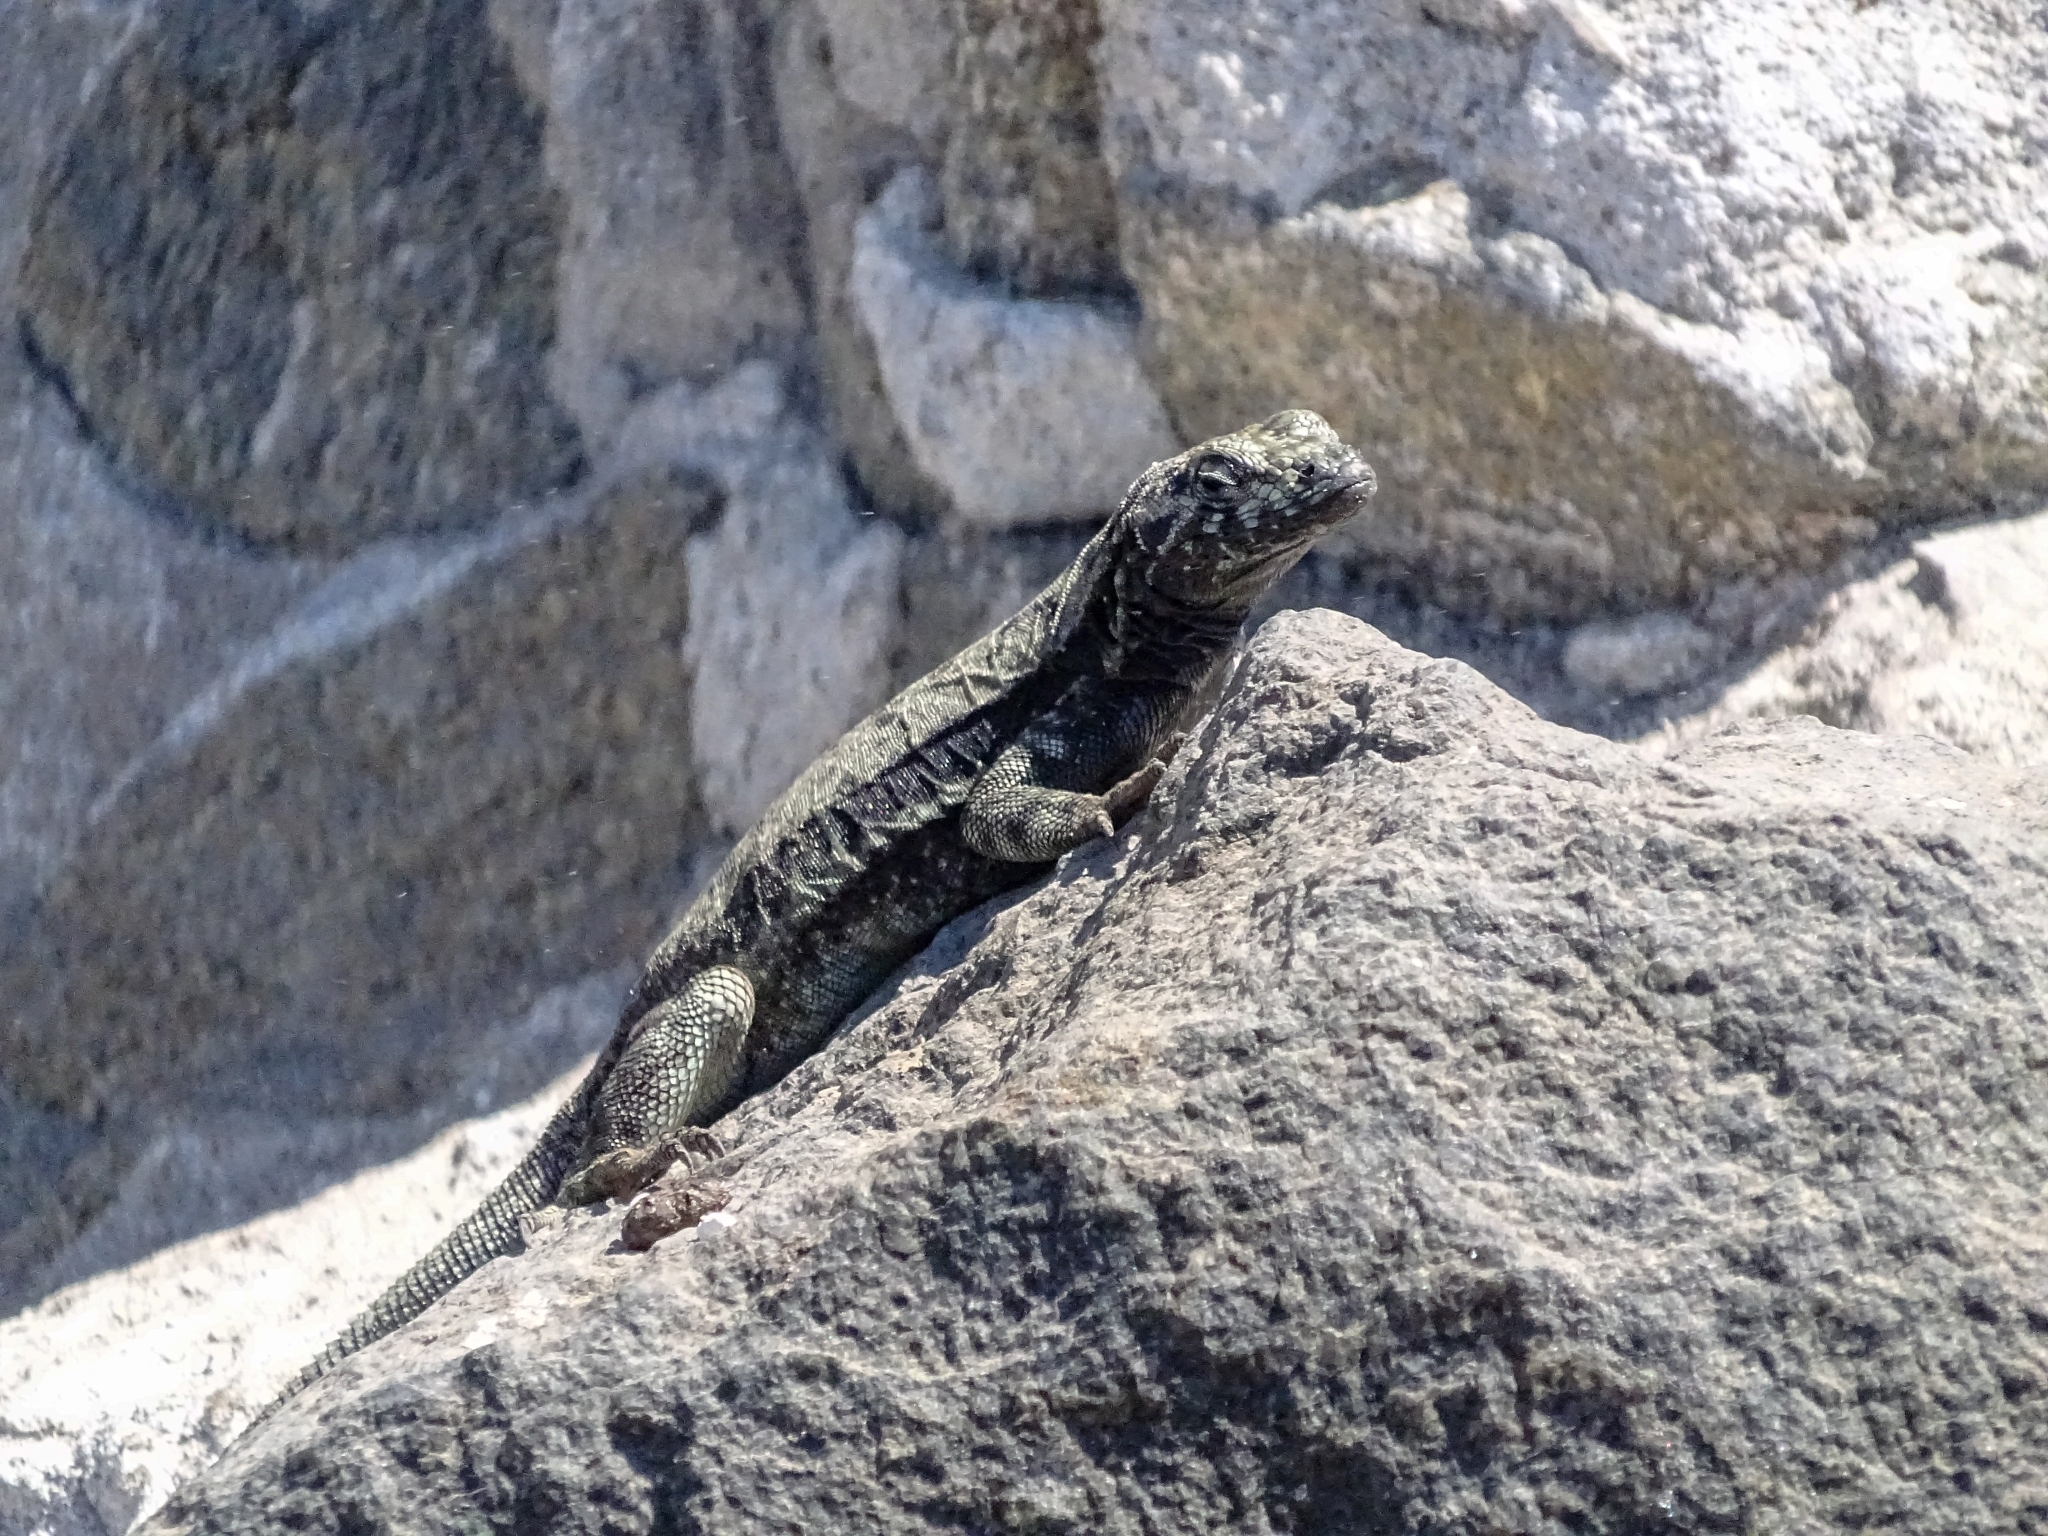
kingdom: Animalia
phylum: Chordata
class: Squamata
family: Tropiduridae
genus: Microlophus
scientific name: Microlophus atacamensis
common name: Atacamen pacific iguana
